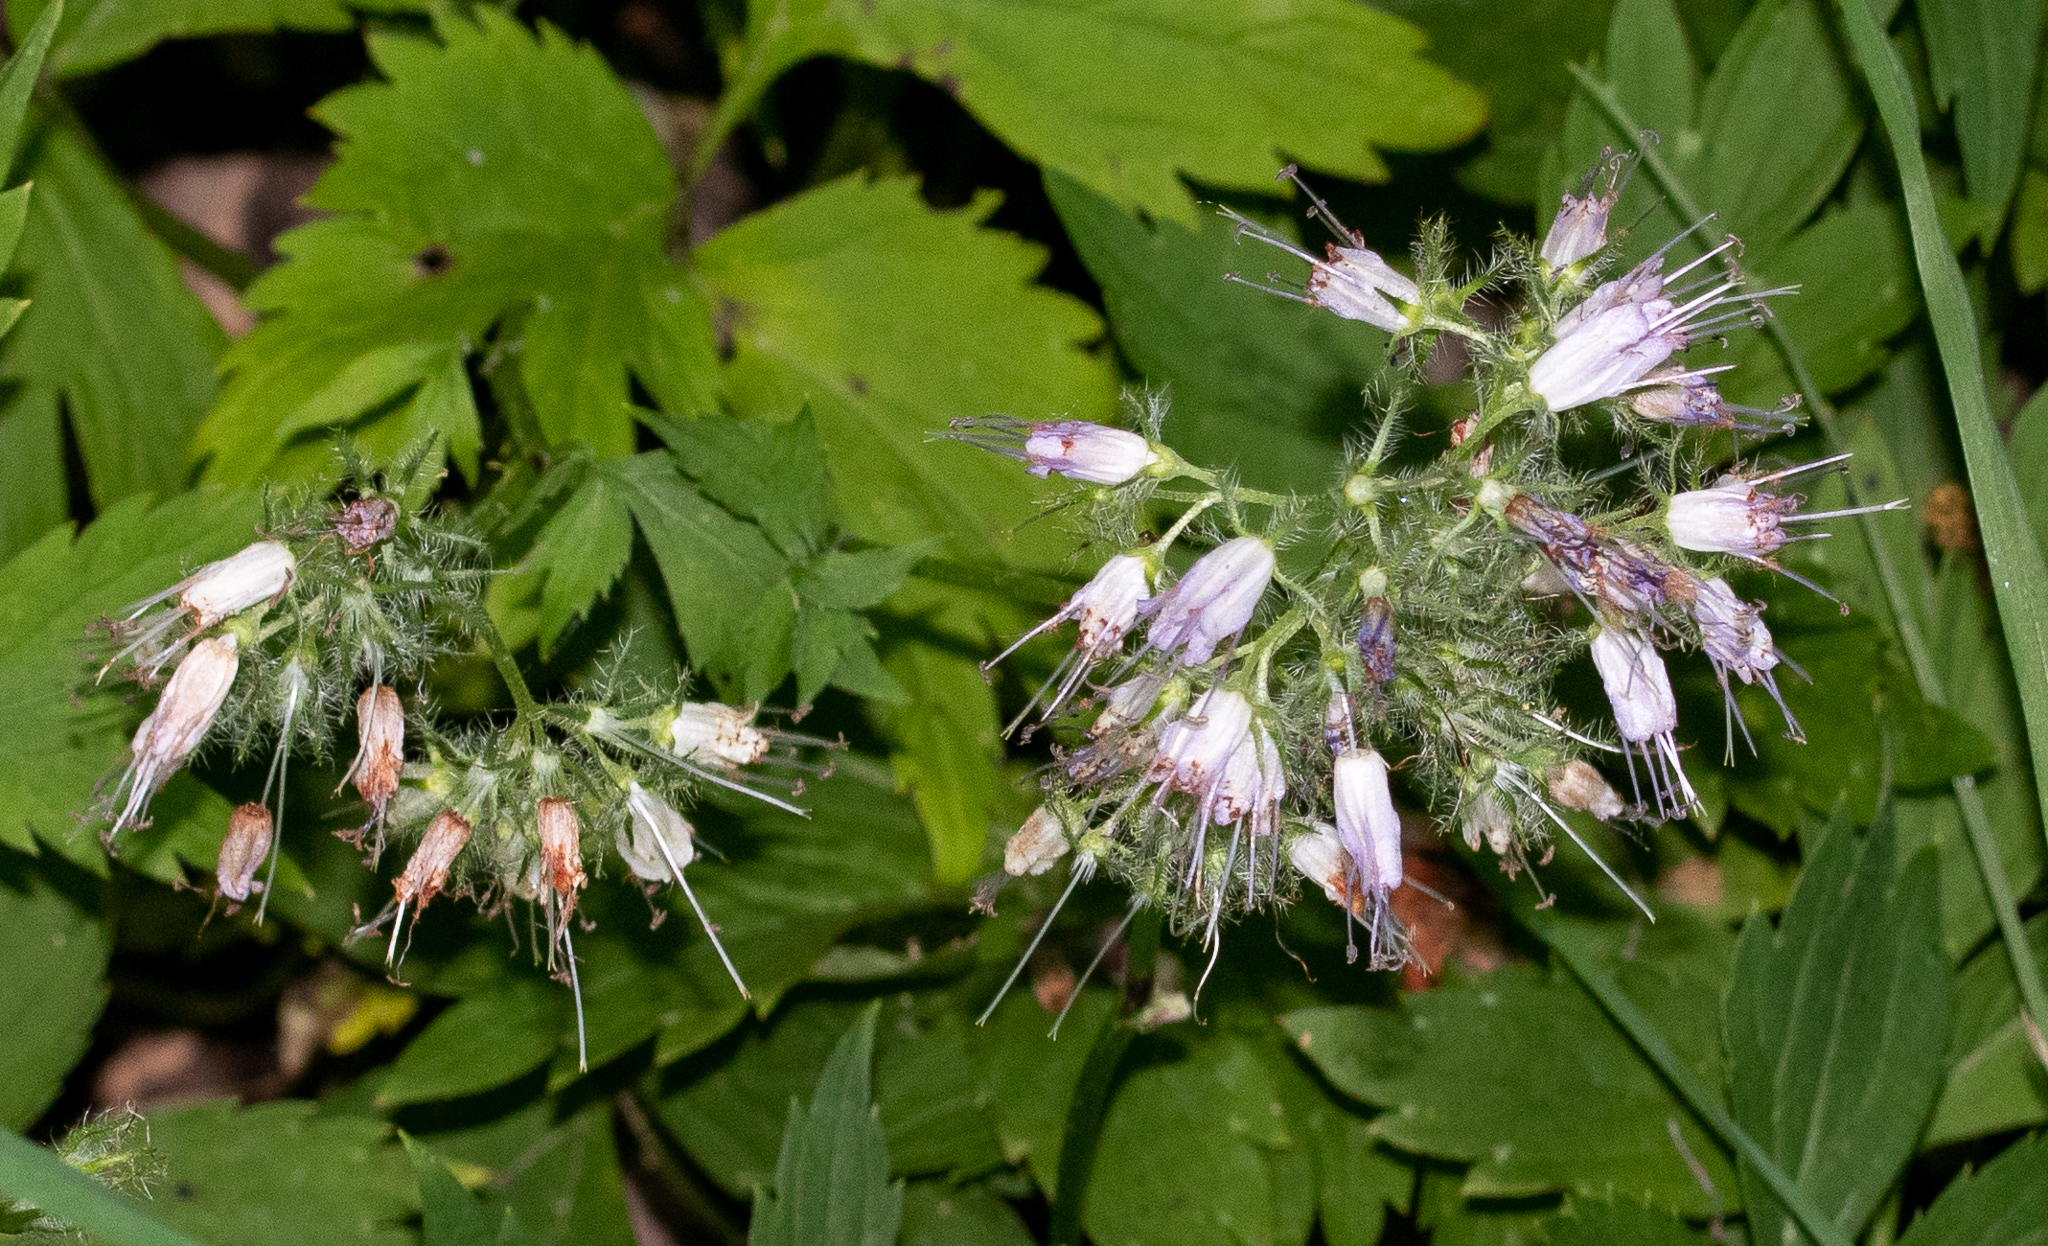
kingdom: Plantae
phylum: Tracheophyta
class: Magnoliopsida
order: Boraginales
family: Hydrophyllaceae
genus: Hydrophyllum
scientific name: Hydrophyllum virginianum
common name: Virginia waterleaf
